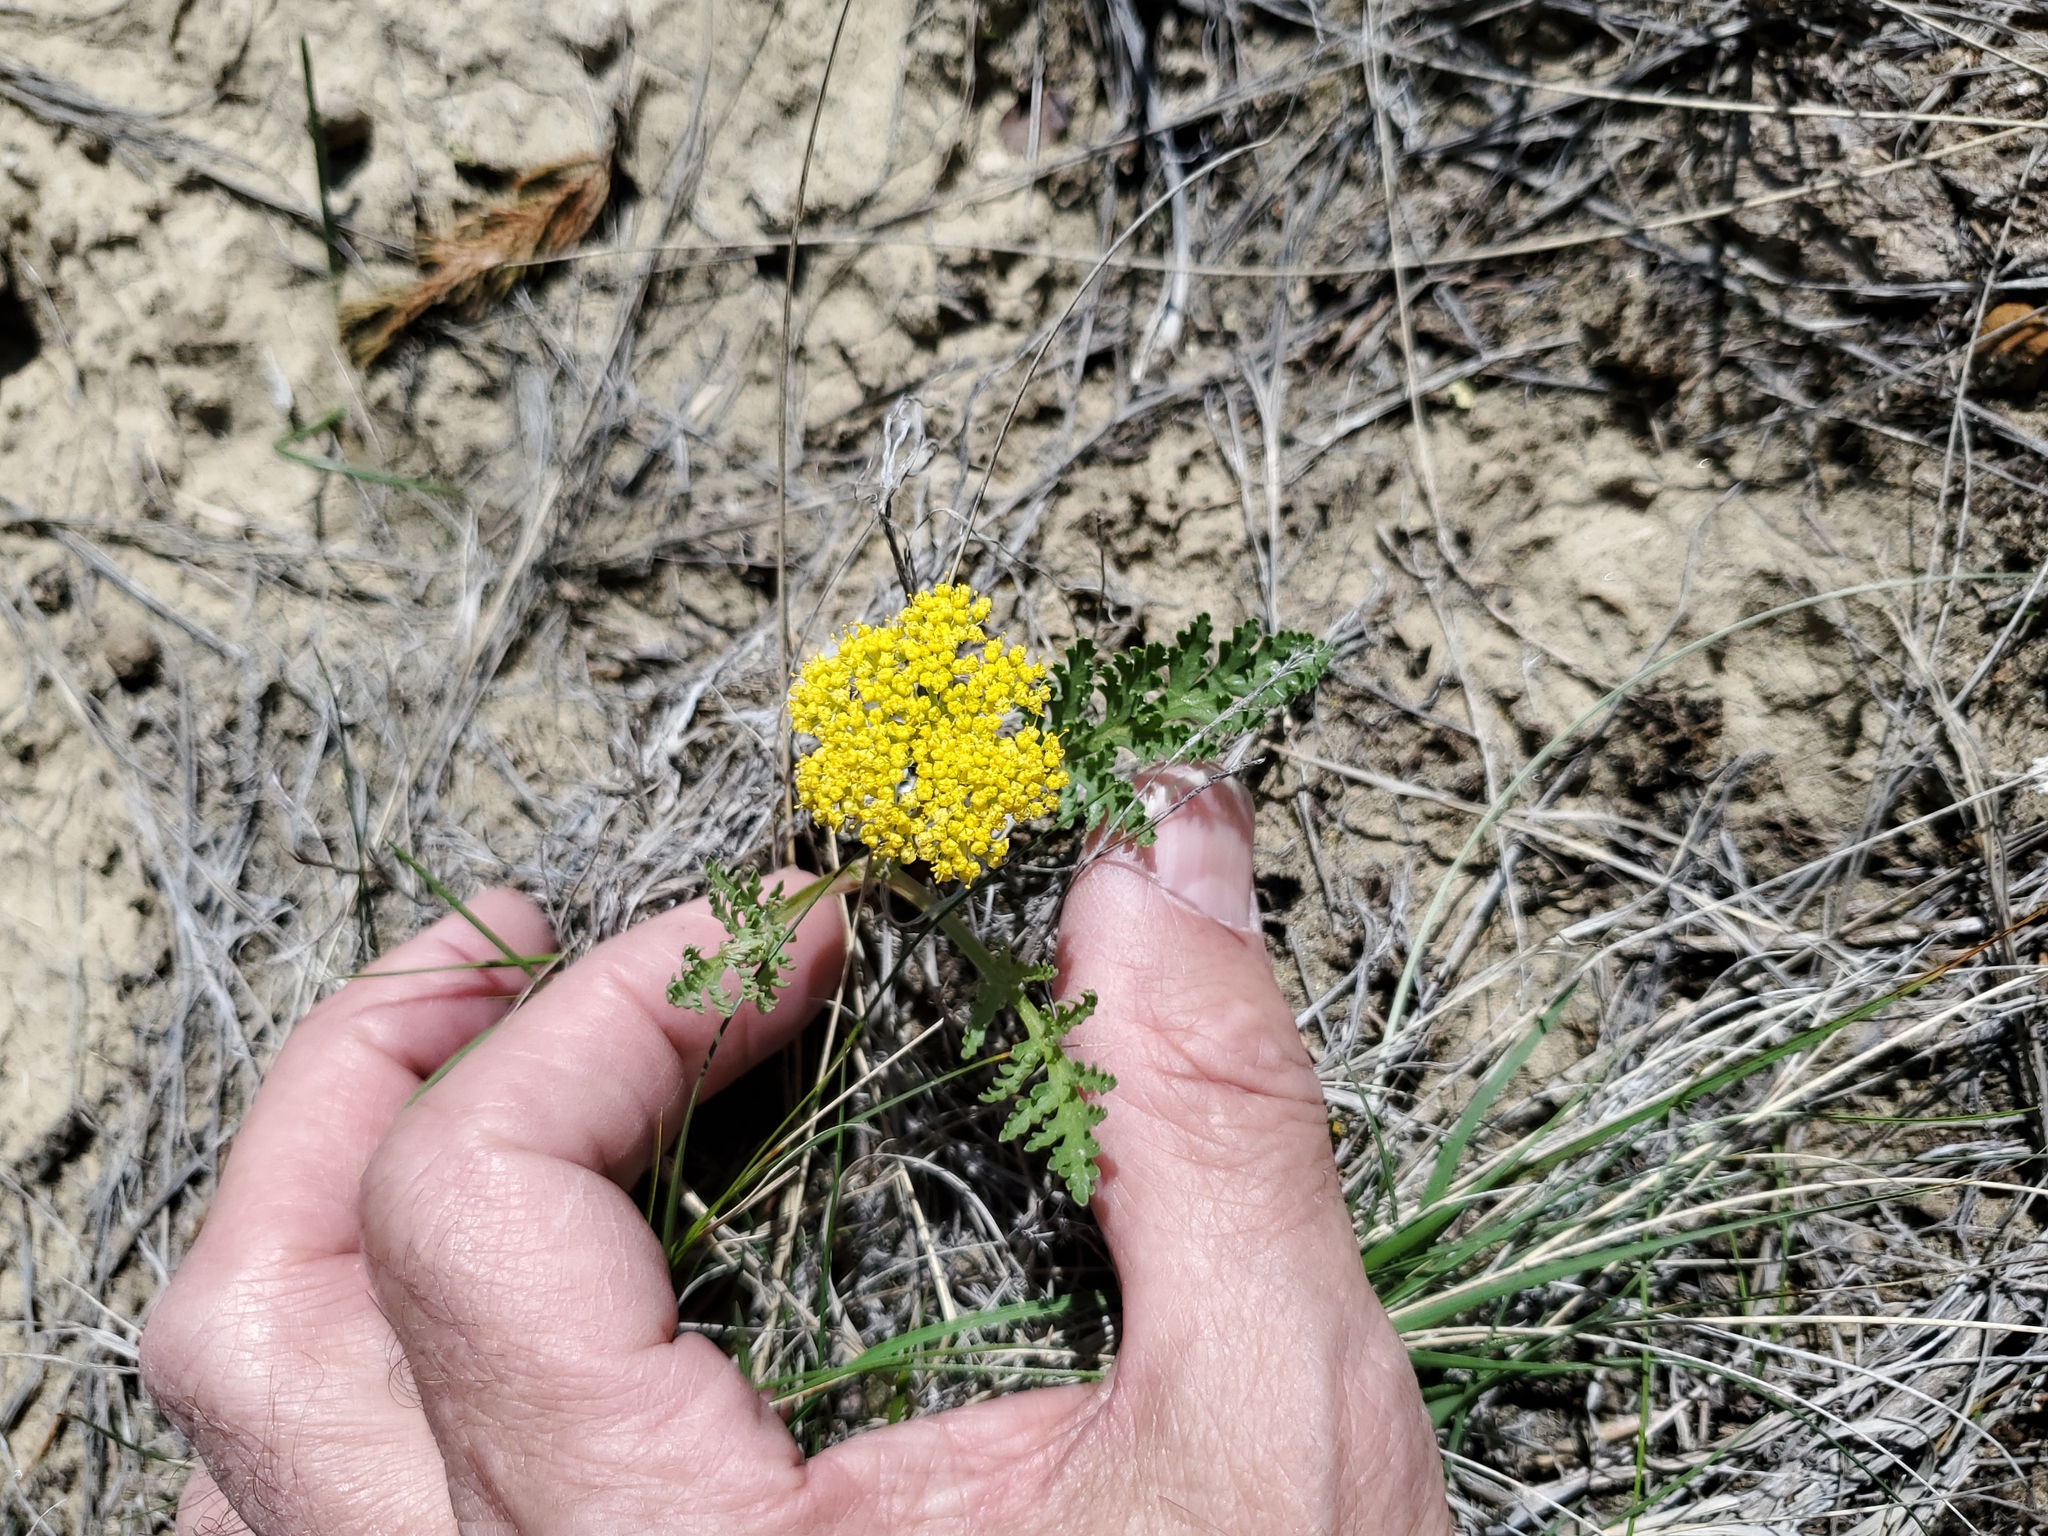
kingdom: Plantae
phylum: Tracheophyta
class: Magnoliopsida
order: Apiales
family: Apiaceae
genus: Musineon
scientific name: Musineon divaricatum
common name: Plains musineon
